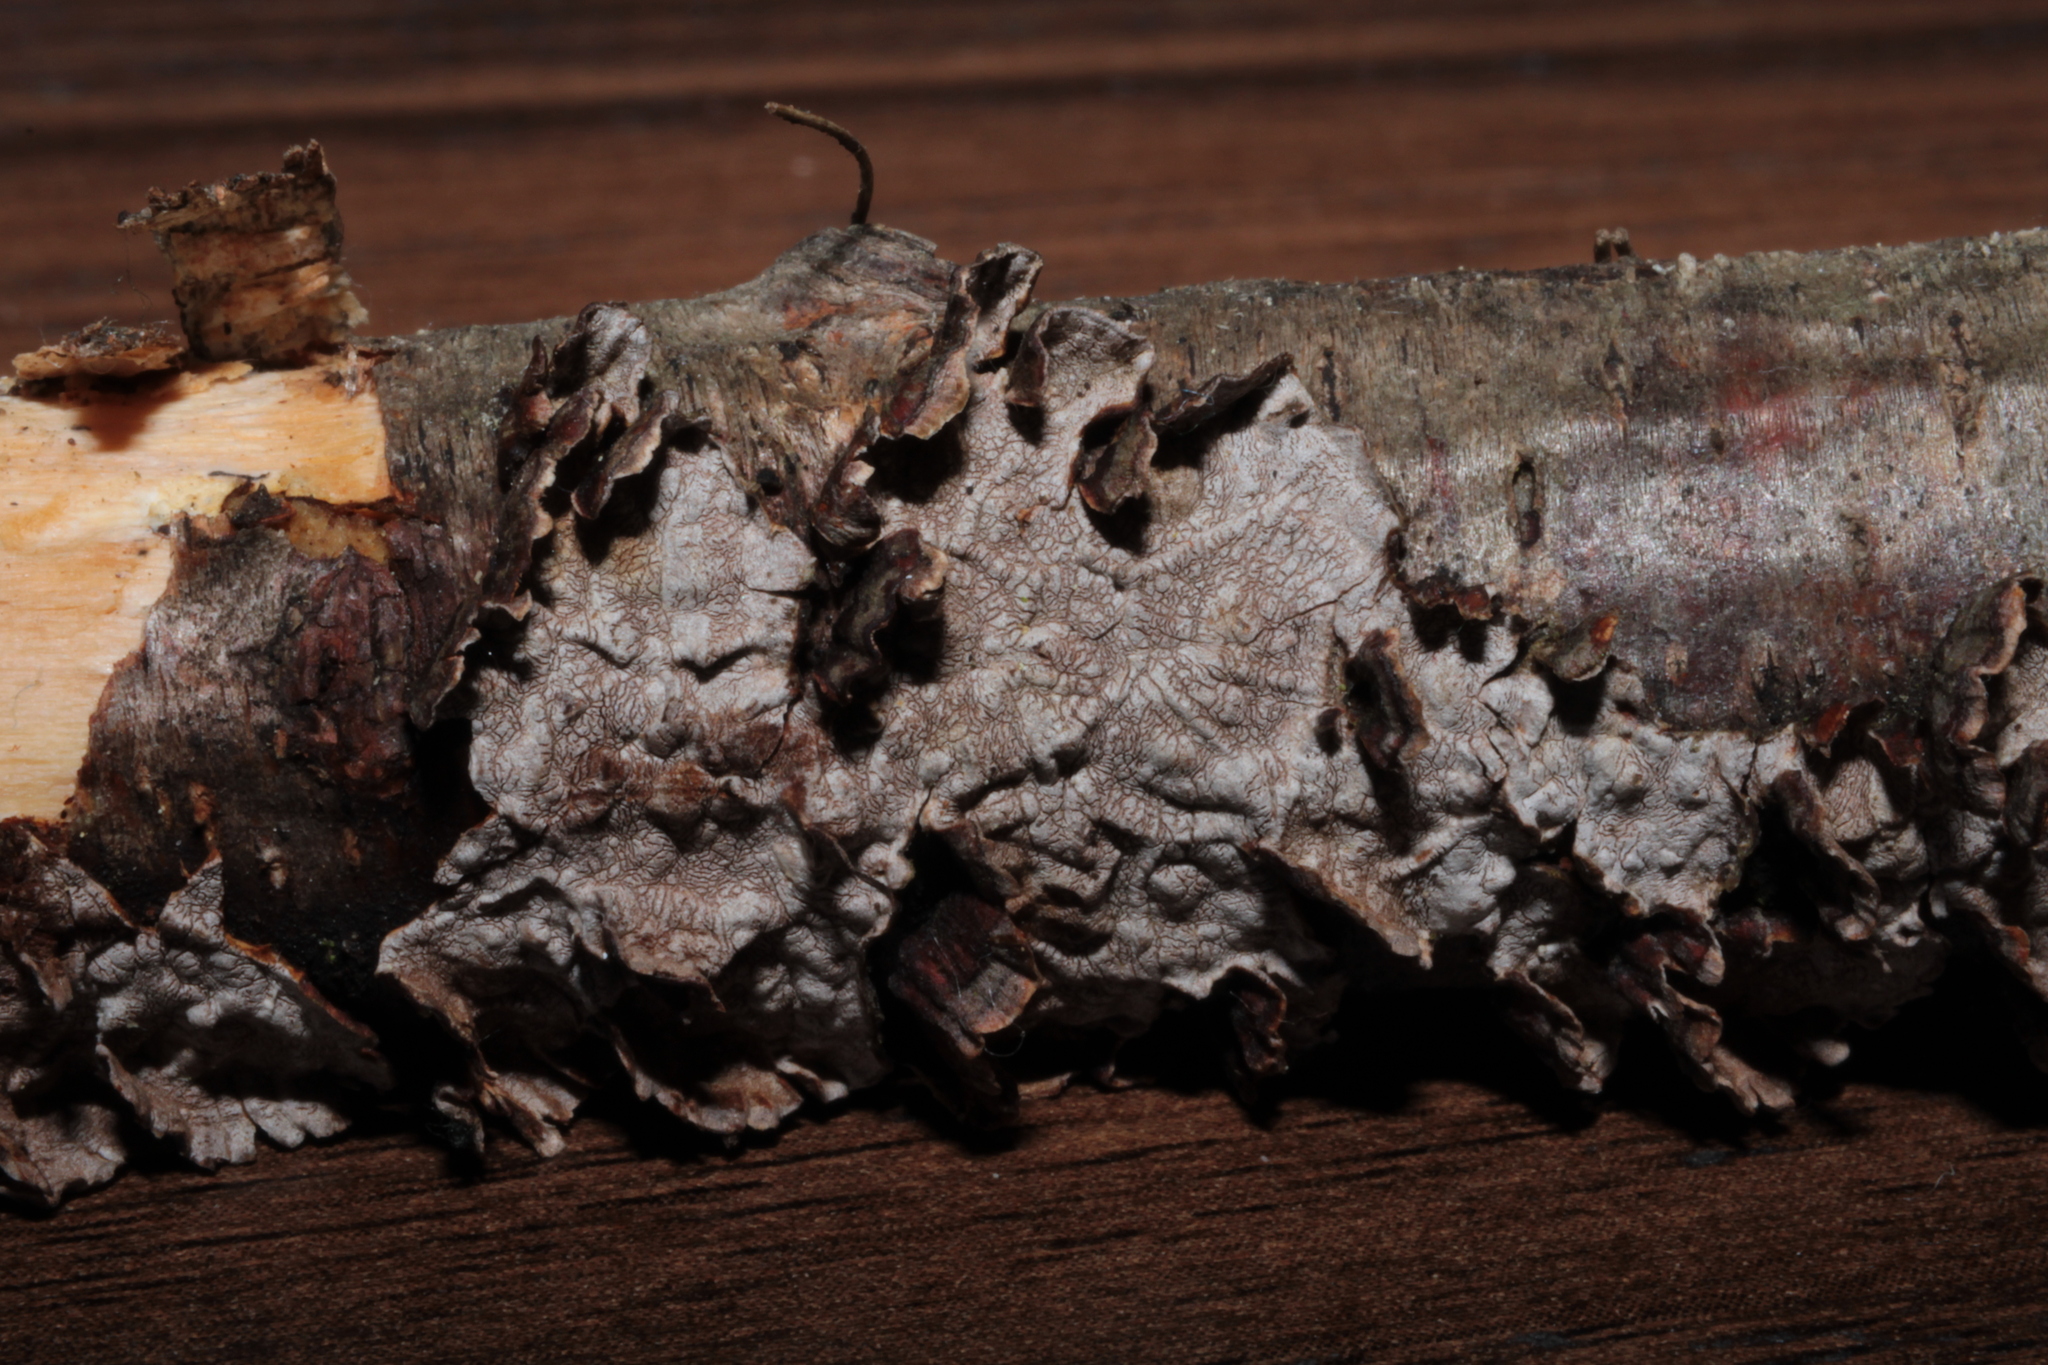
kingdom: Fungi
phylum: Basidiomycota
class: Agaricomycetes
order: Hymenochaetales
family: Hymenochaetaceae
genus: Hydnoporia
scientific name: Hydnoporia tabacina
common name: Willow glue
